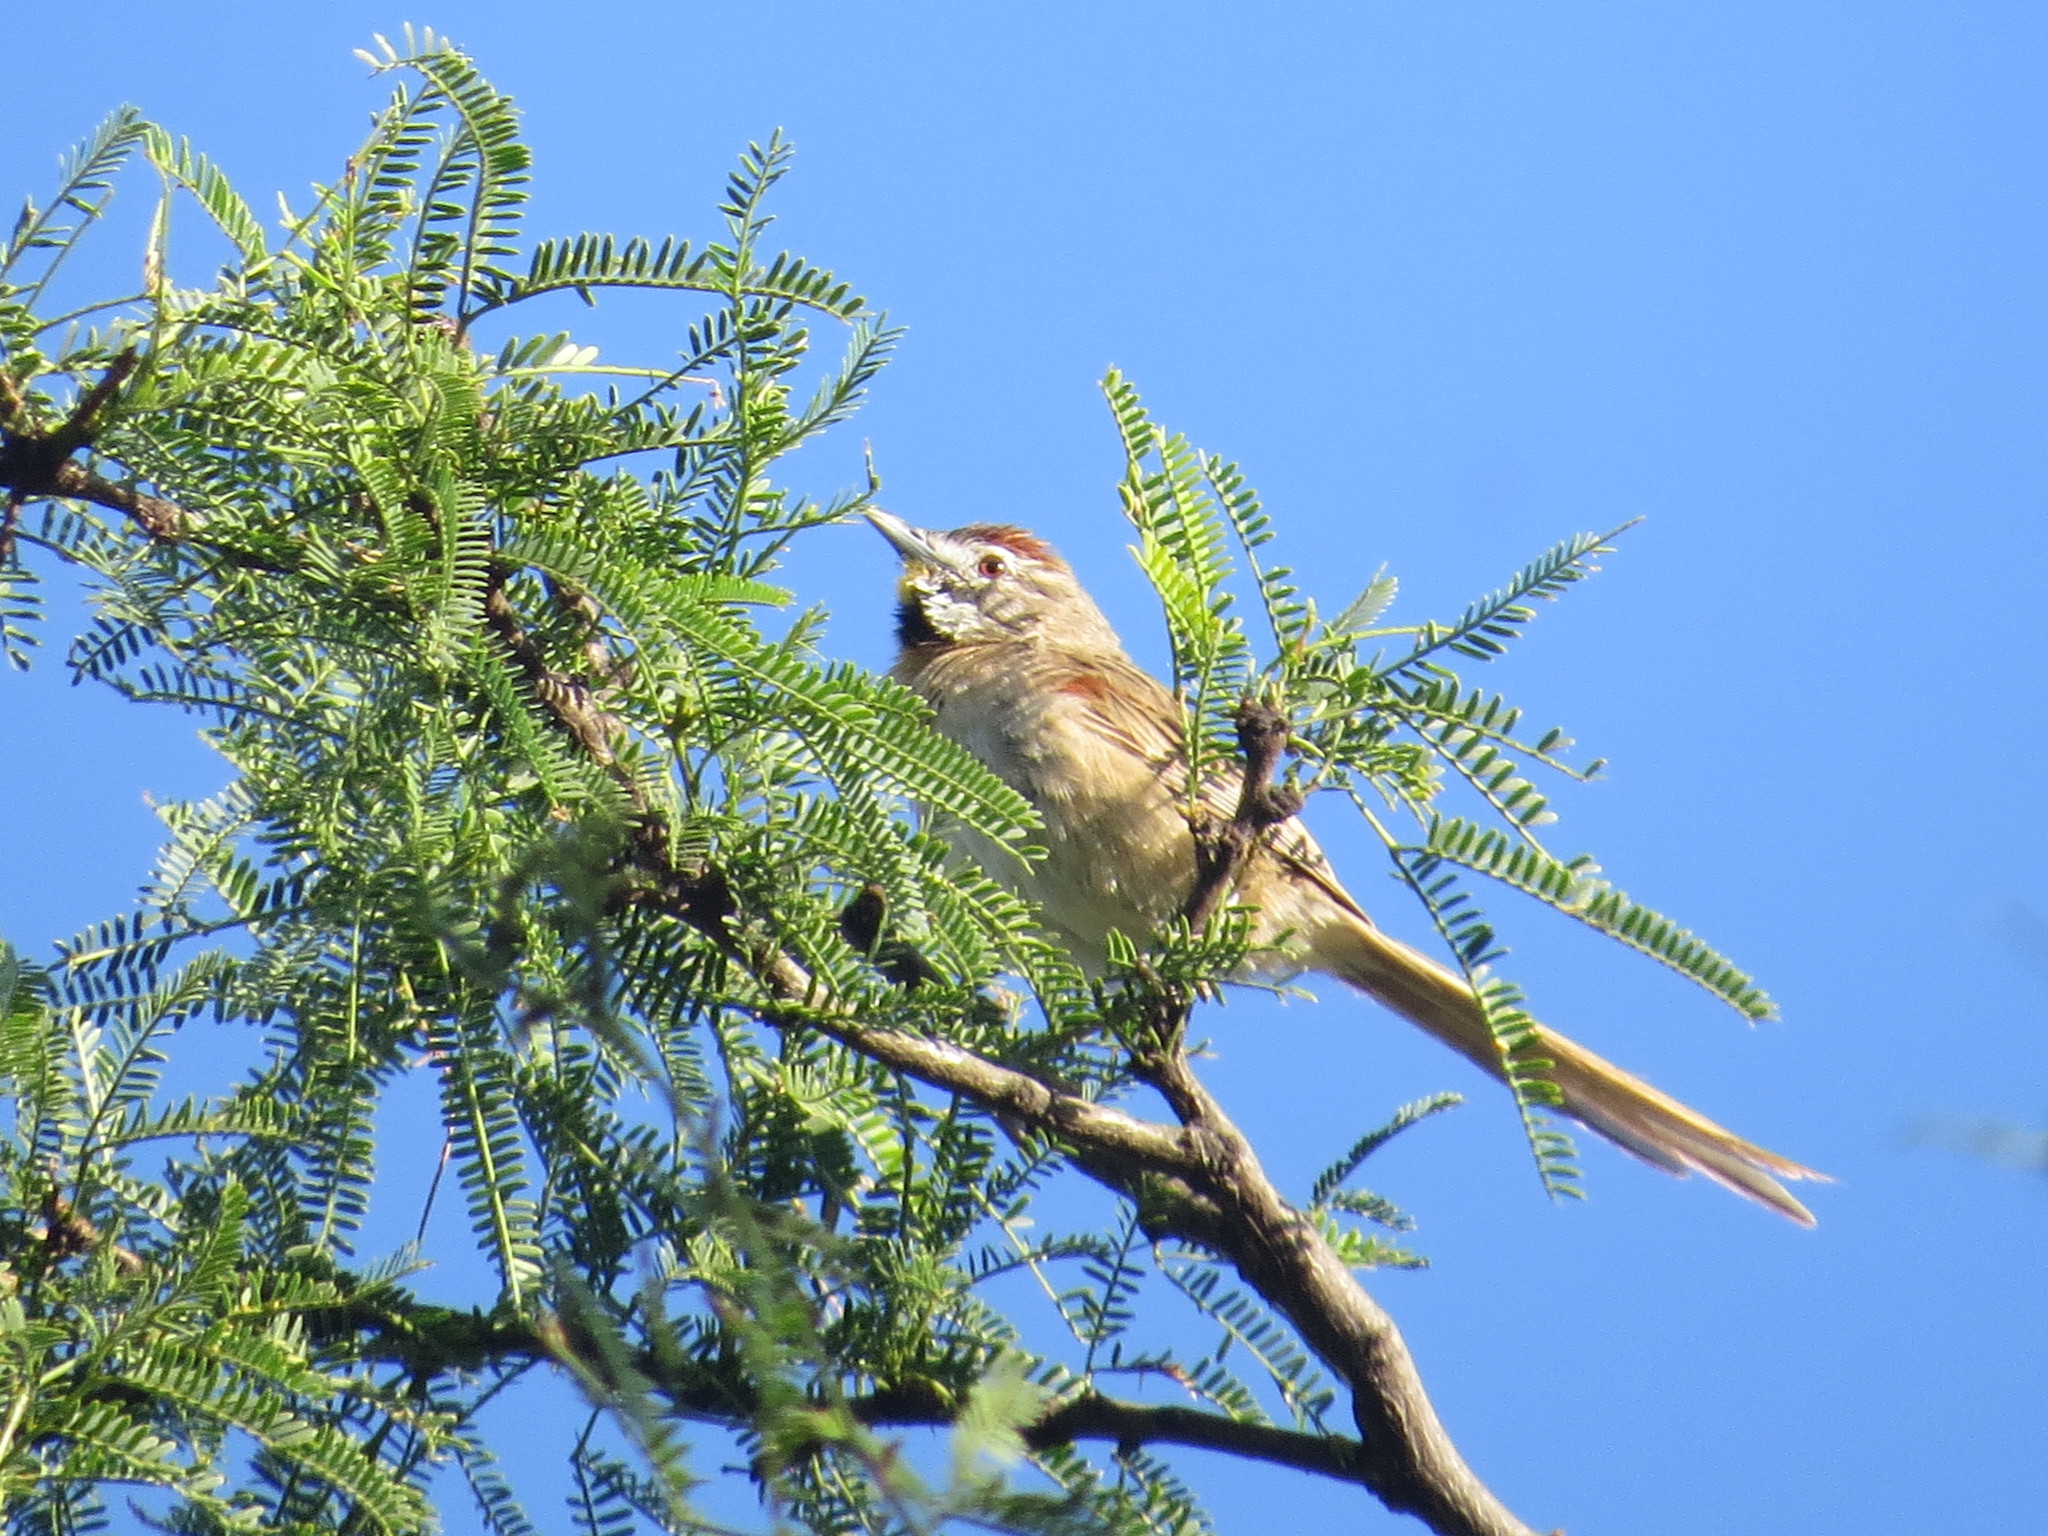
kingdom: Animalia
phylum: Chordata
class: Aves
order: Passeriformes
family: Furnariidae
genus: Schoeniophylax
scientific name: Schoeniophylax phryganophilus
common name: Chotoy spinetail
